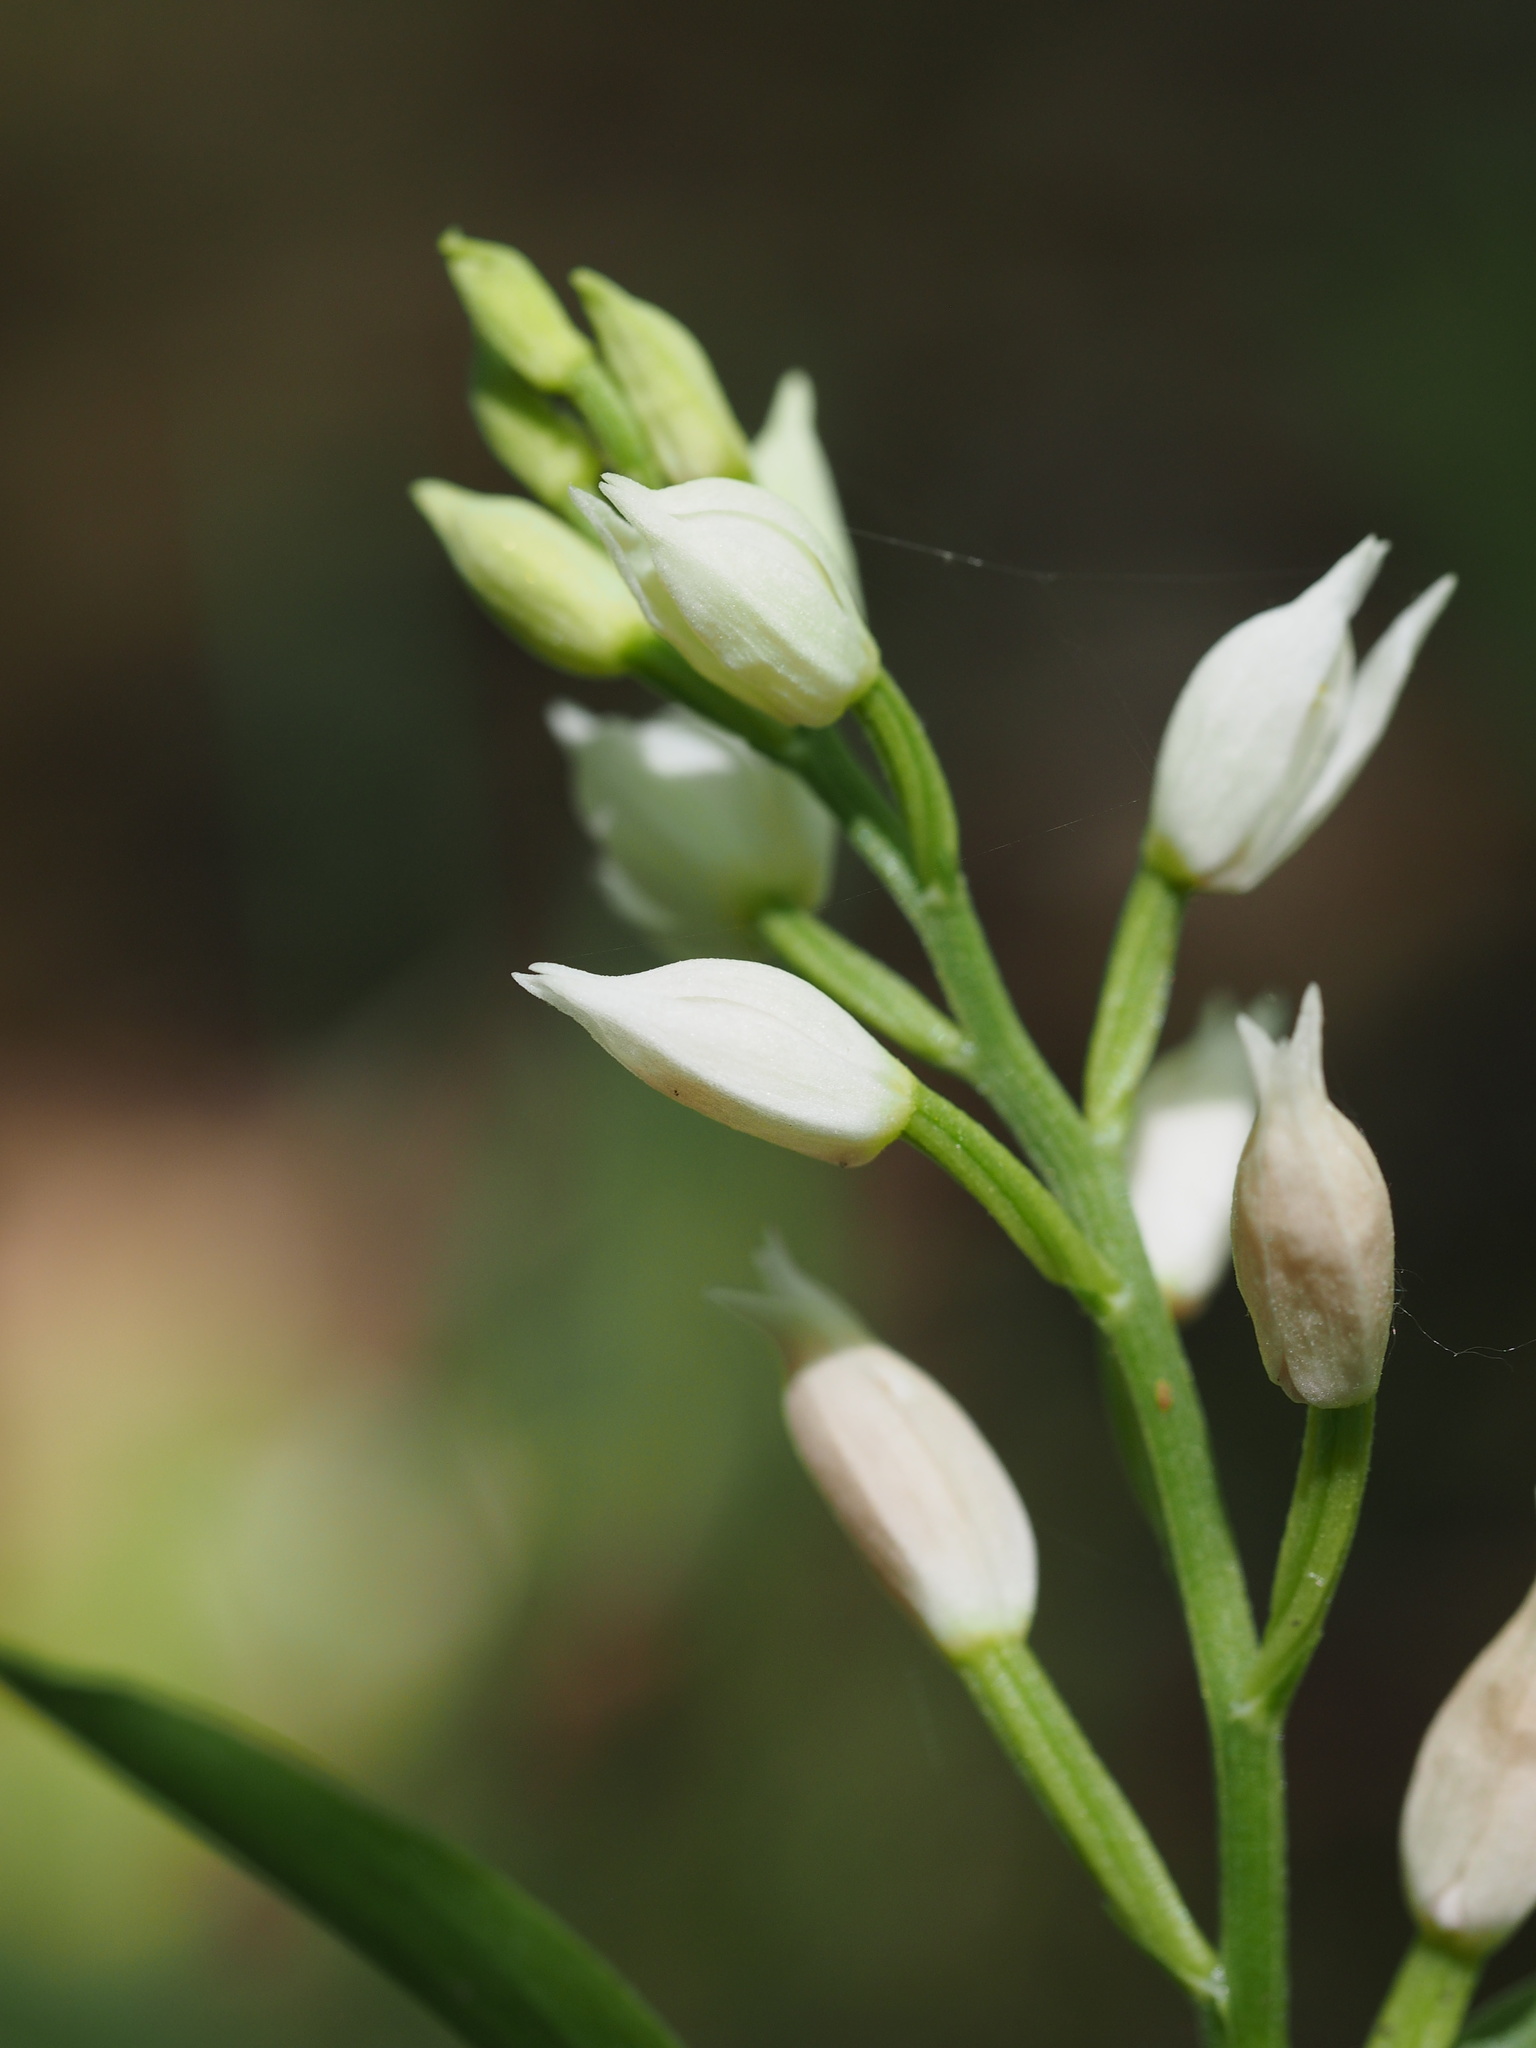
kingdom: Plantae
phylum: Tracheophyta
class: Liliopsida
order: Asparagales
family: Orchidaceae
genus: Cephalanthera
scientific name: Cephalanthera longifolia
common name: Narrow-leaved helleborine
